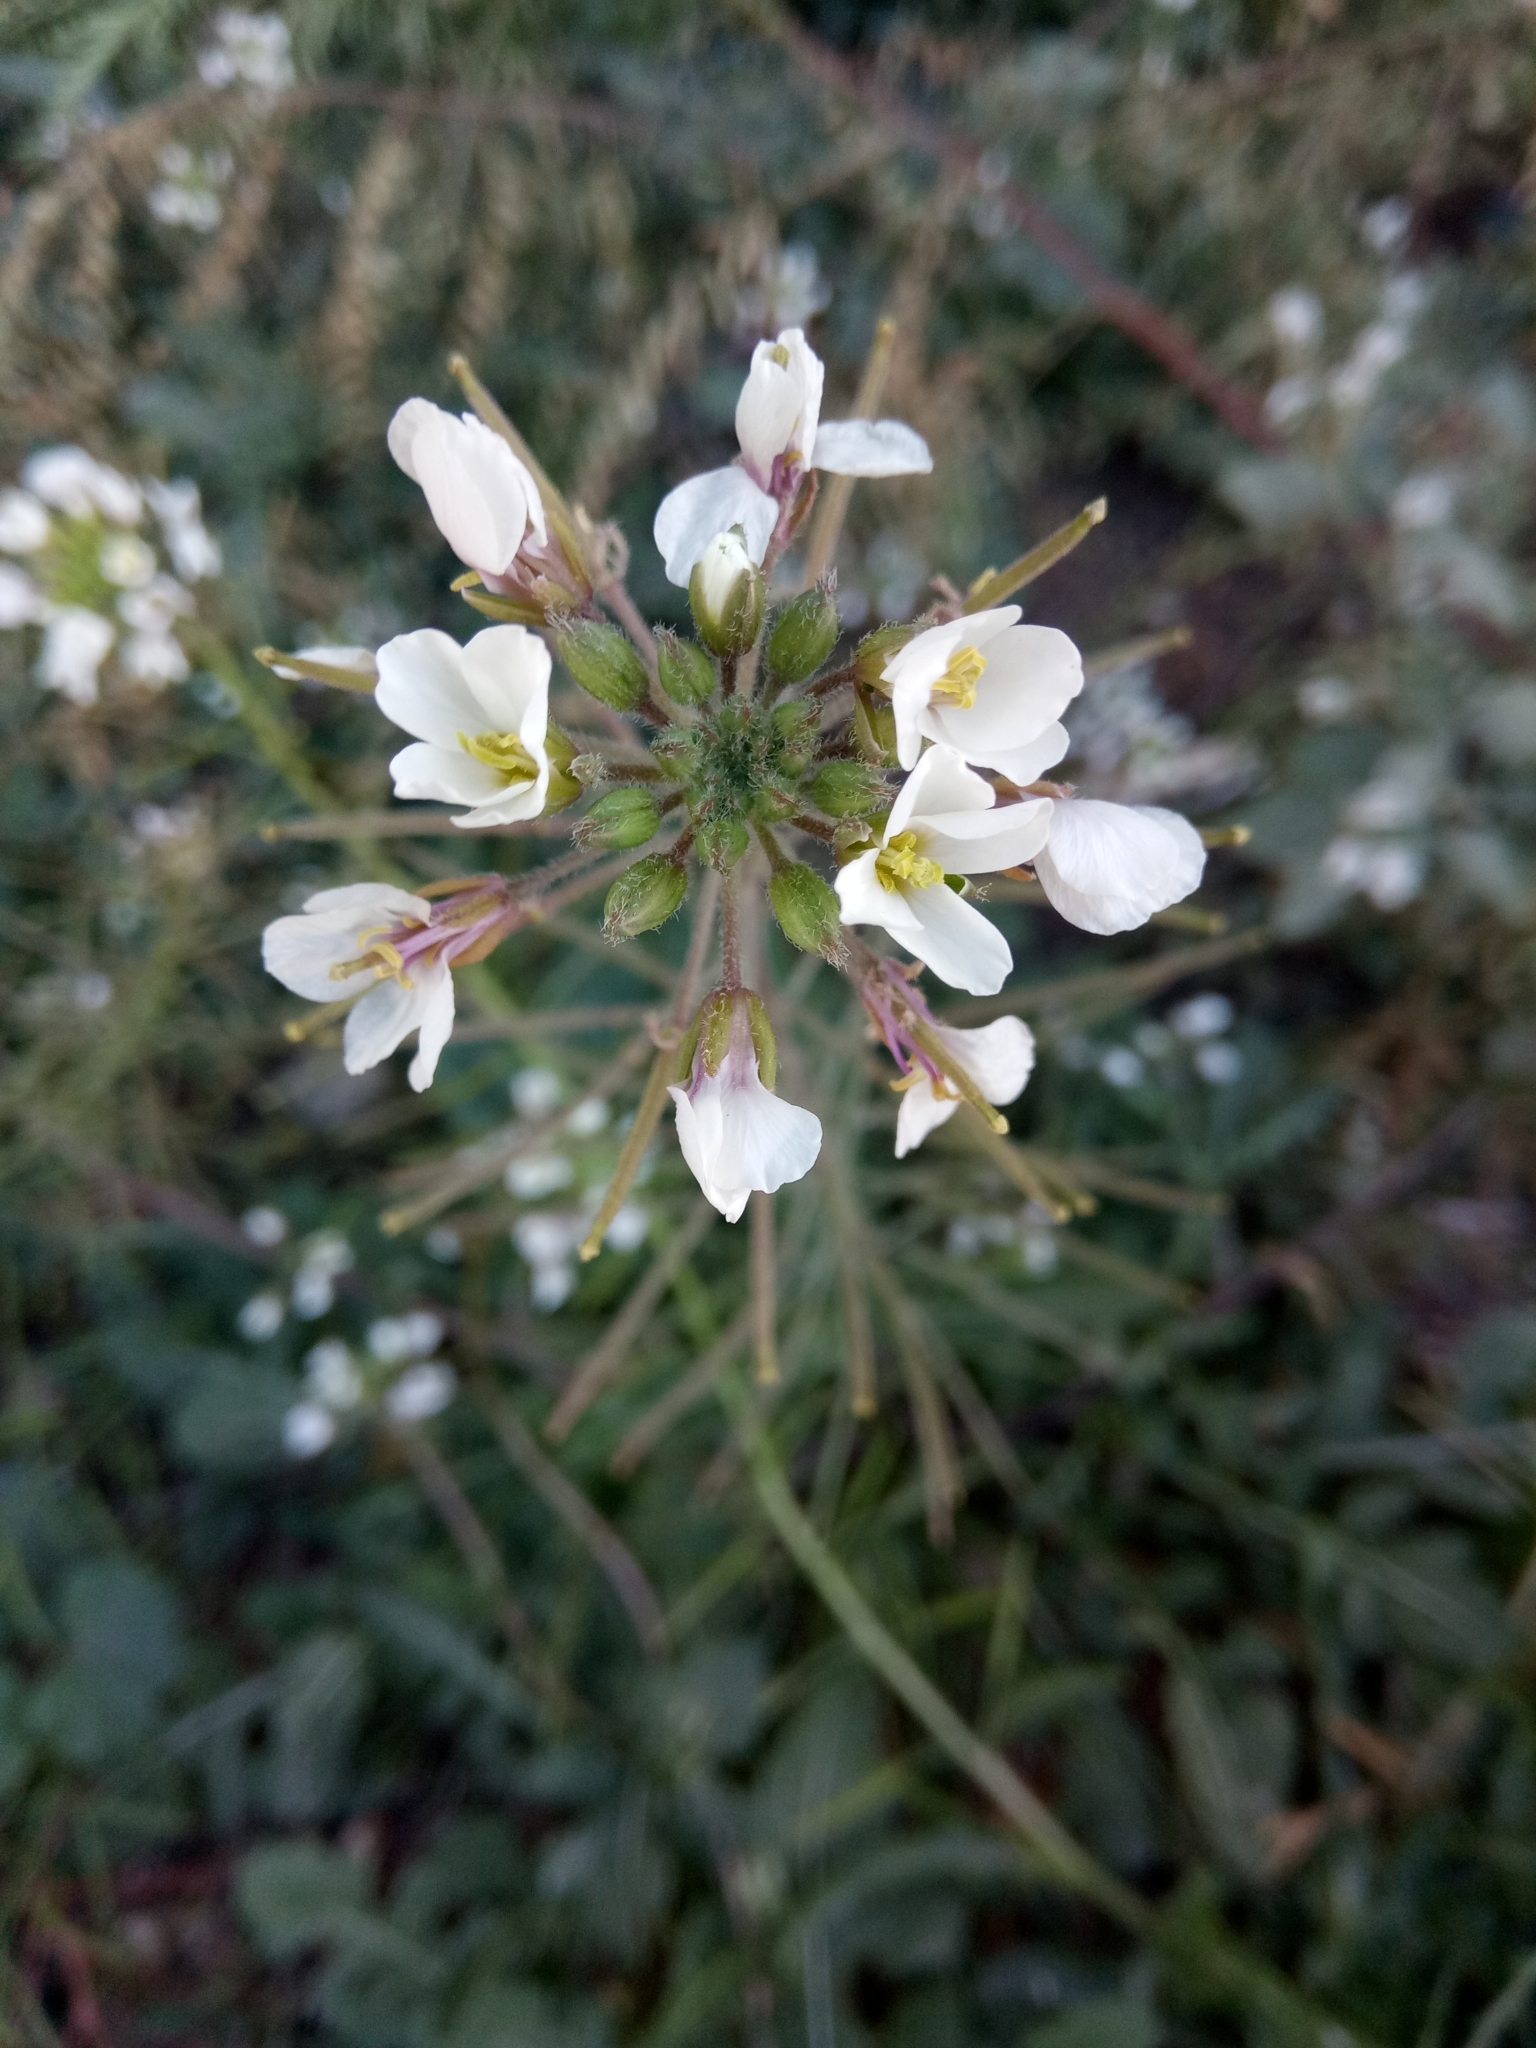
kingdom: Plantae
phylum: Tracheophyta
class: Magnoliopsida
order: Brassicales
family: Brassicaceae
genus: Diplotaxis
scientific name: Diplotaxis erucoides
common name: White rocket
